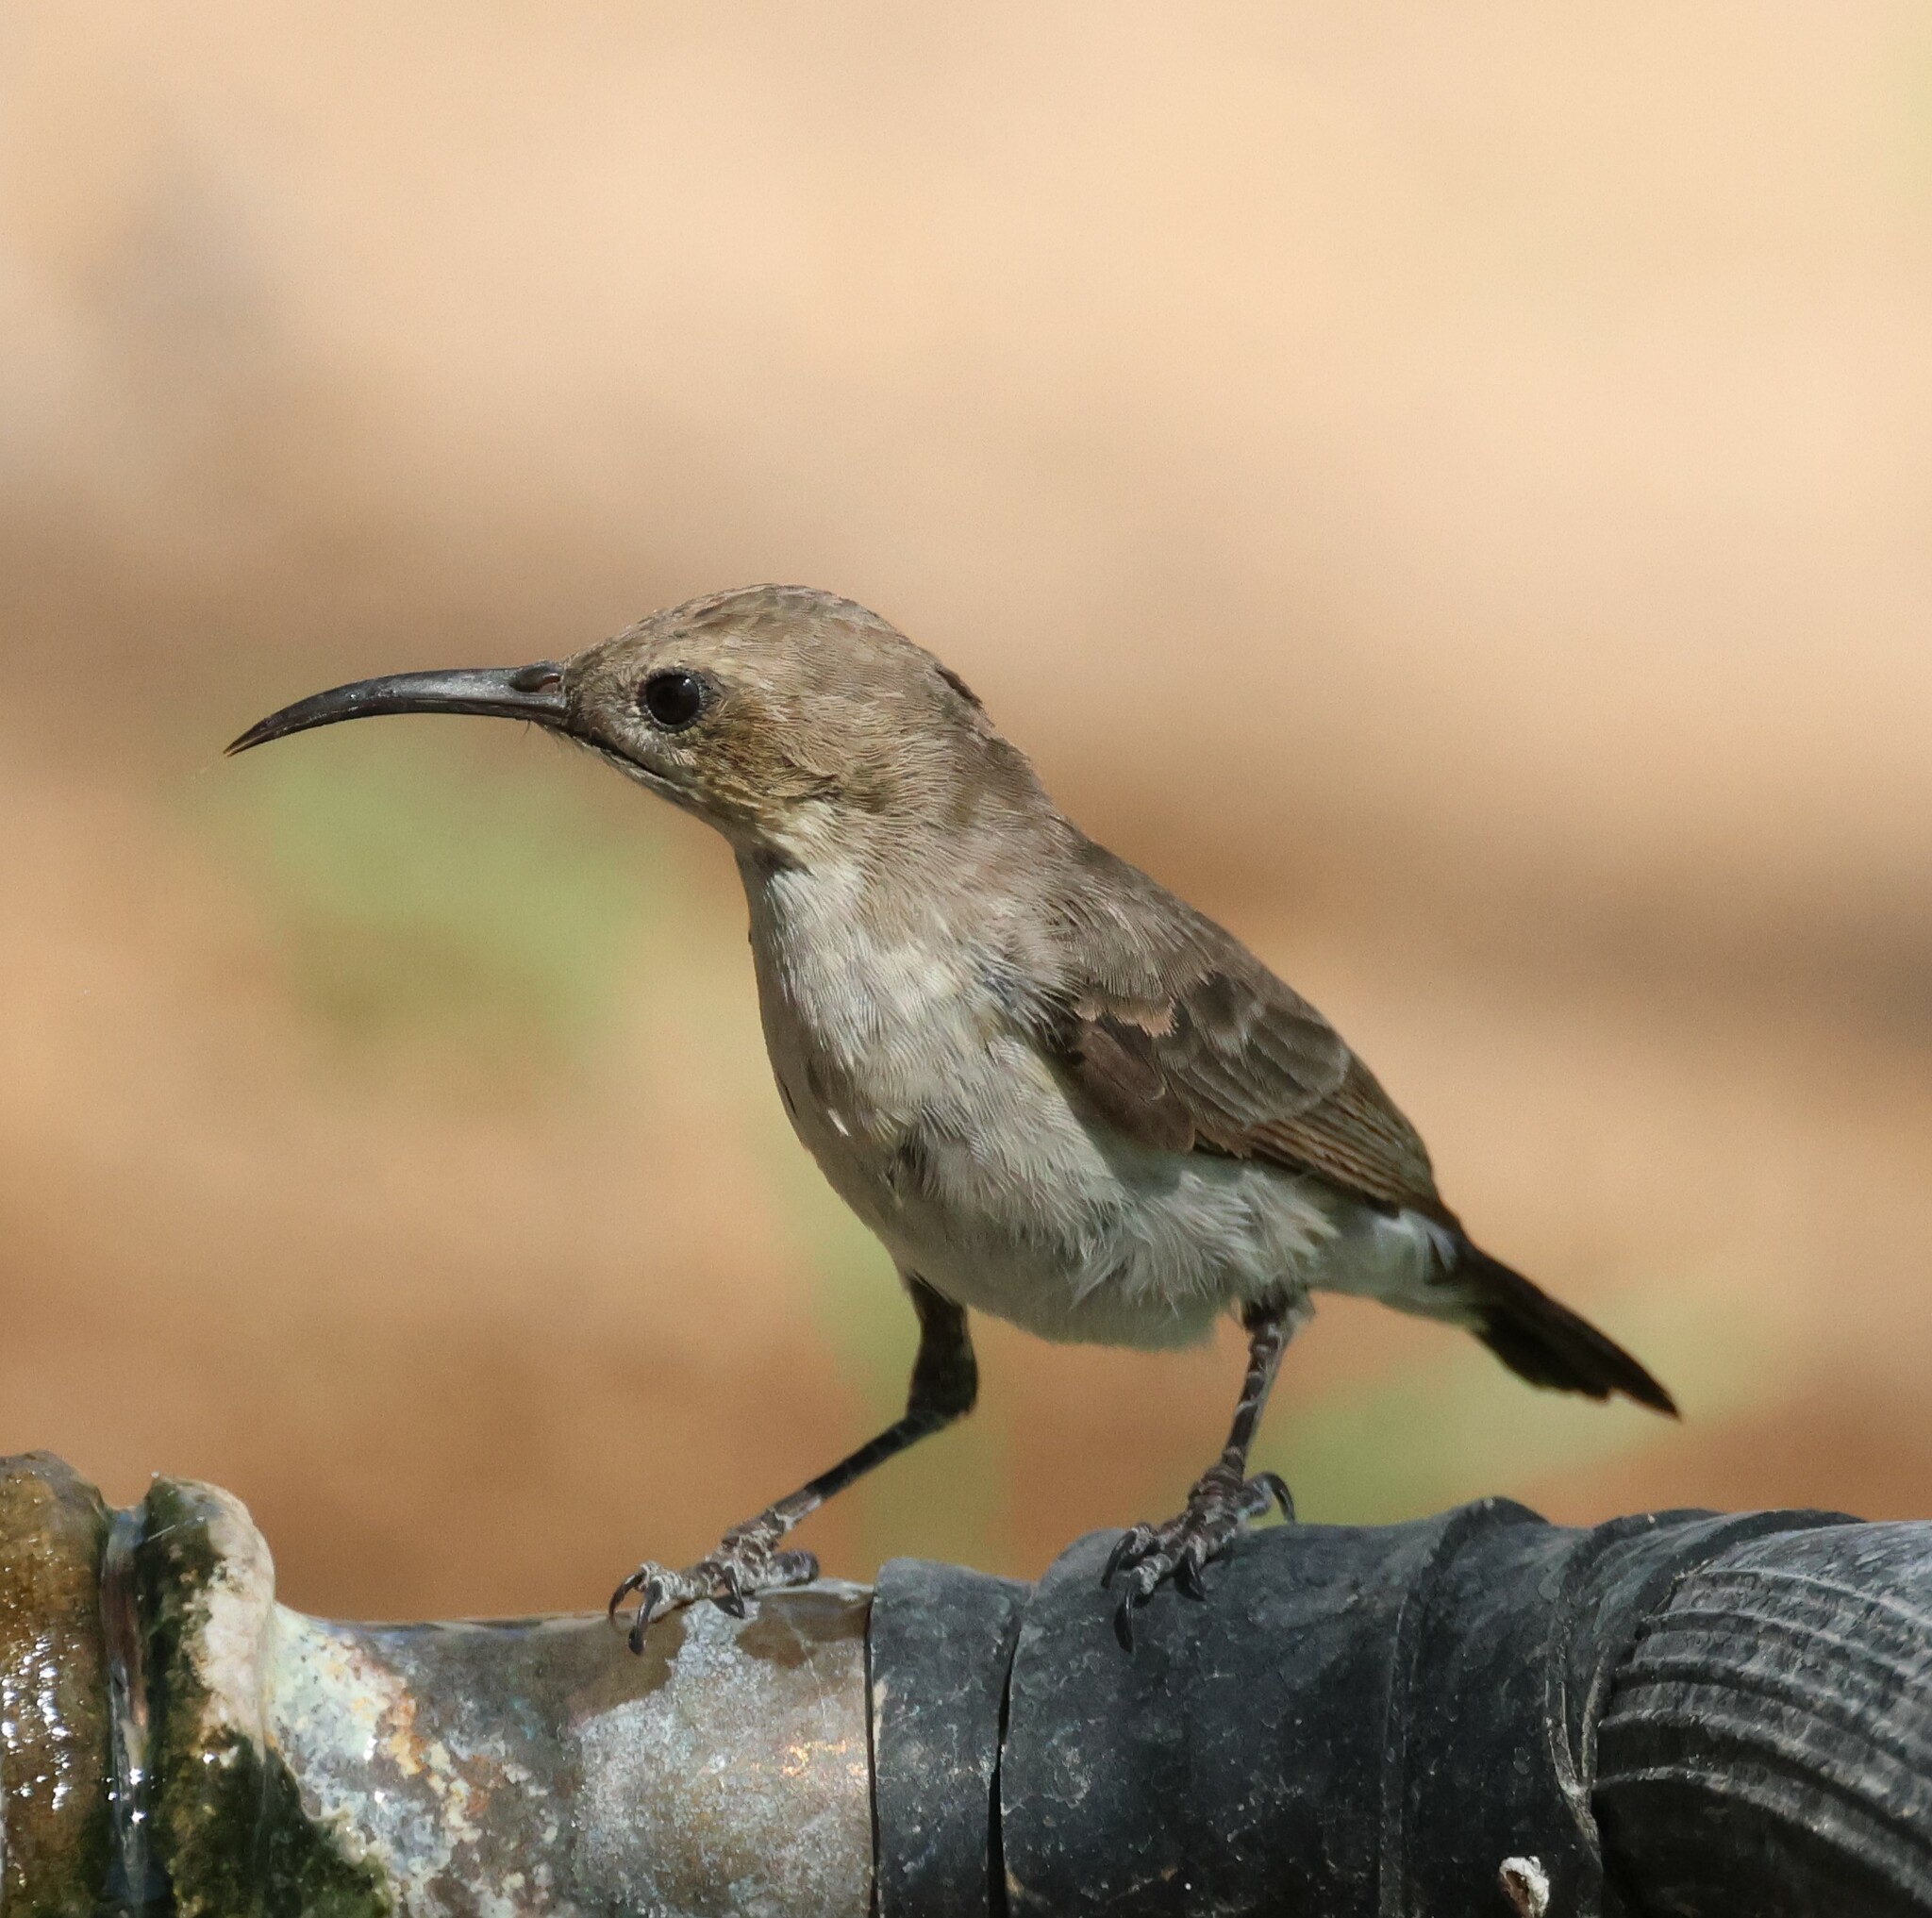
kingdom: Animalia
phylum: Chordata
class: Aves
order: Passeriformes
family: Nectariniidae
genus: Cinnyris
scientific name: Cinnyris fuscus
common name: Dusky sunbird
